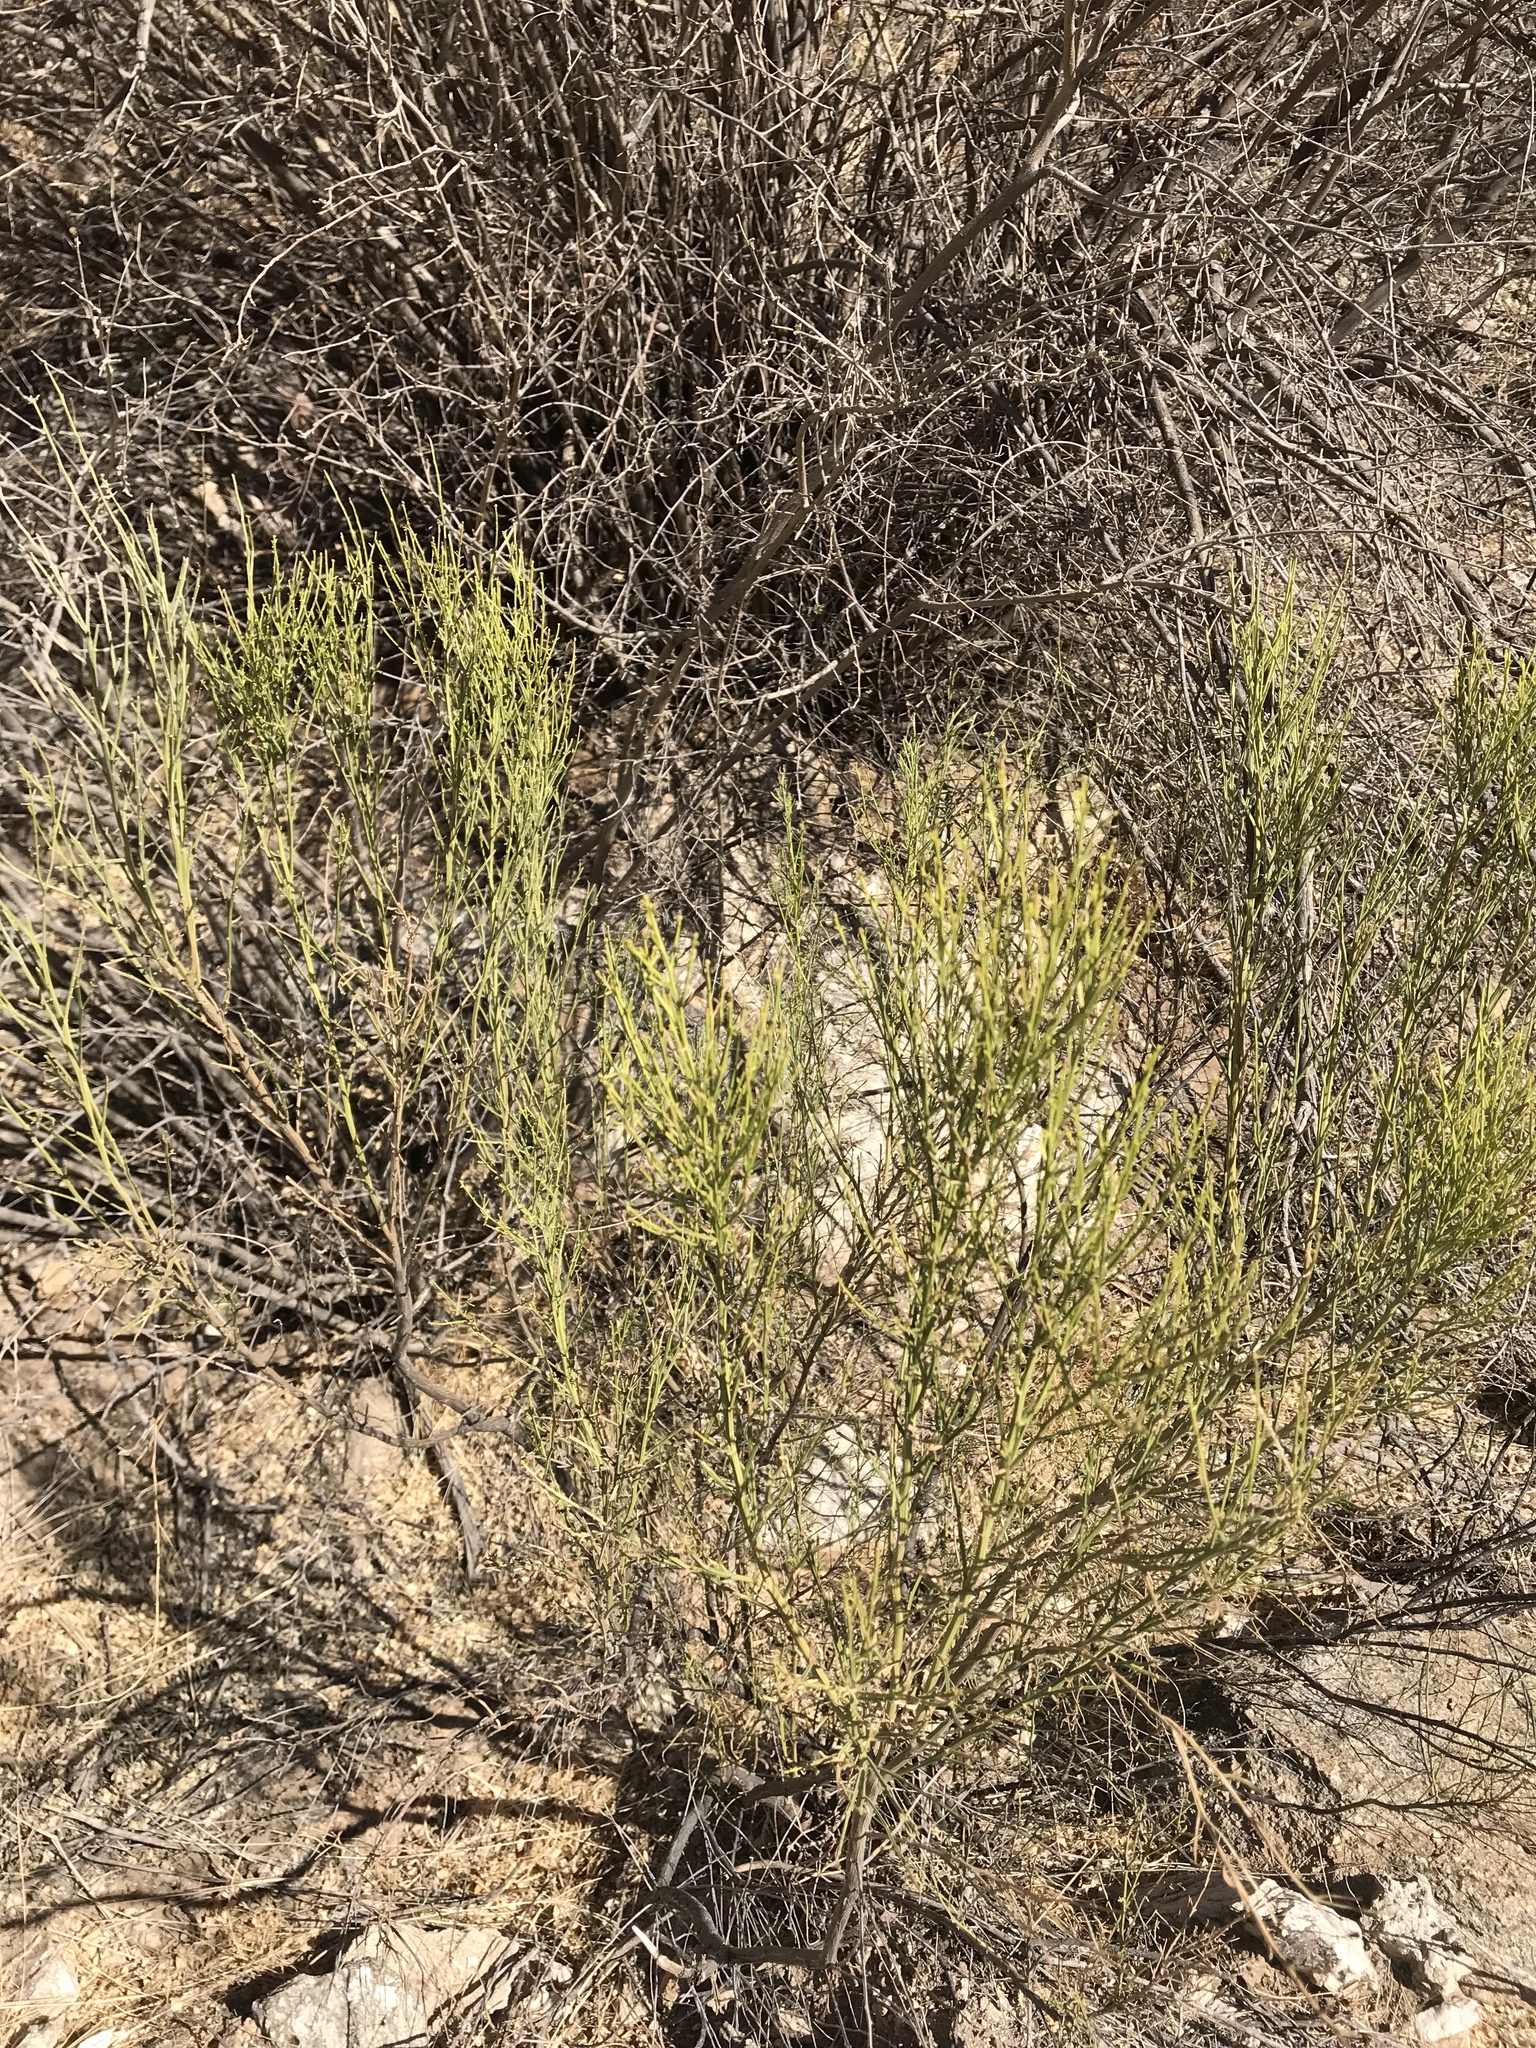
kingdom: Plantae
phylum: Tracheophyta
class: Magnoliopsida
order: Asterales
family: Asteraceae
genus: Baccharis
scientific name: Baccharis sarothroides
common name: Desert-broom
